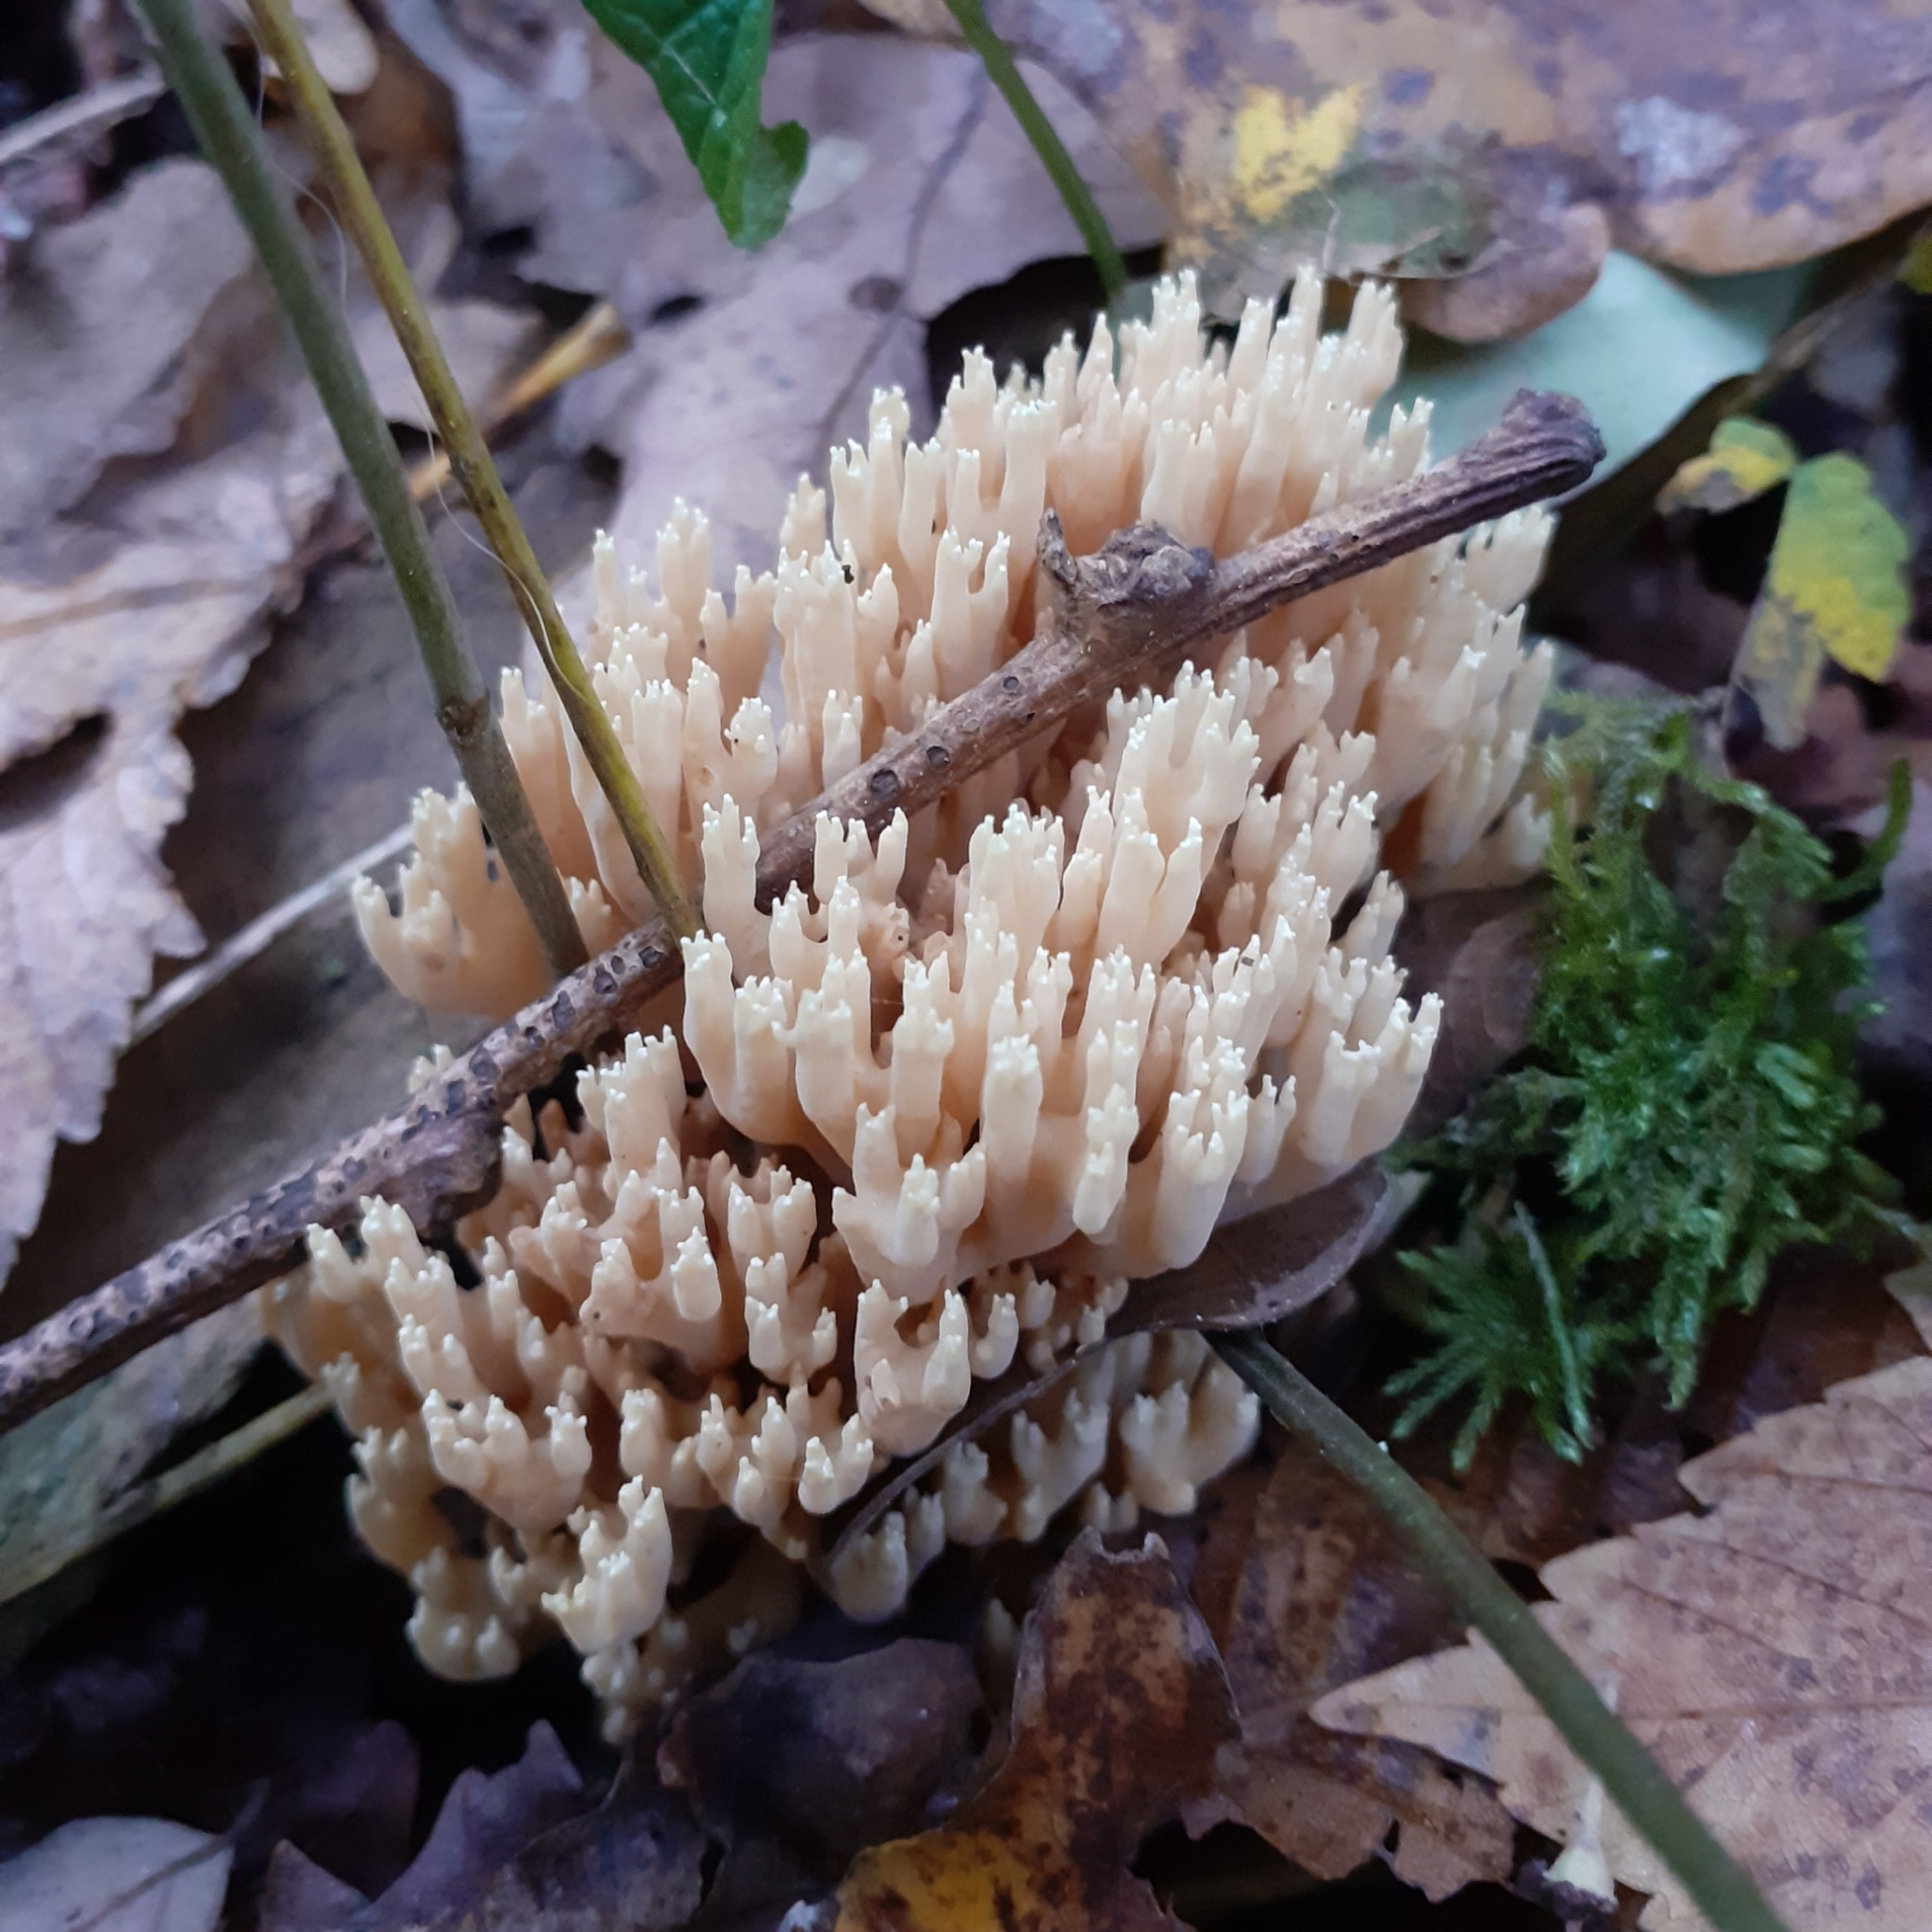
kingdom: Fungi
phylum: Basidiomycota
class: Agaricomycetes
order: Gomphales
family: Gomphaceae
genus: Ramaria
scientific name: Ramaria stricta
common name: Upright coral
